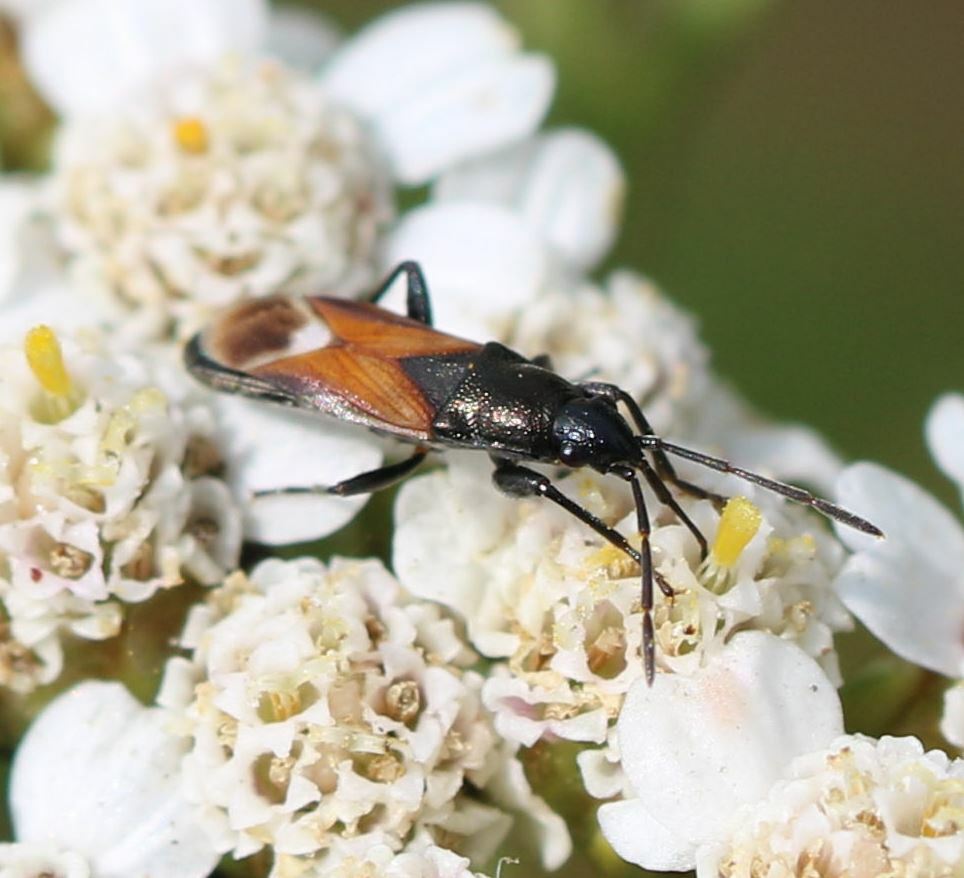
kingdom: Animalia
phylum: Arthropoda
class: Insecta
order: Hemiptera
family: Rhyparochromidae
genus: Pterotmetus
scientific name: Pterotmetus staphyliniformis
